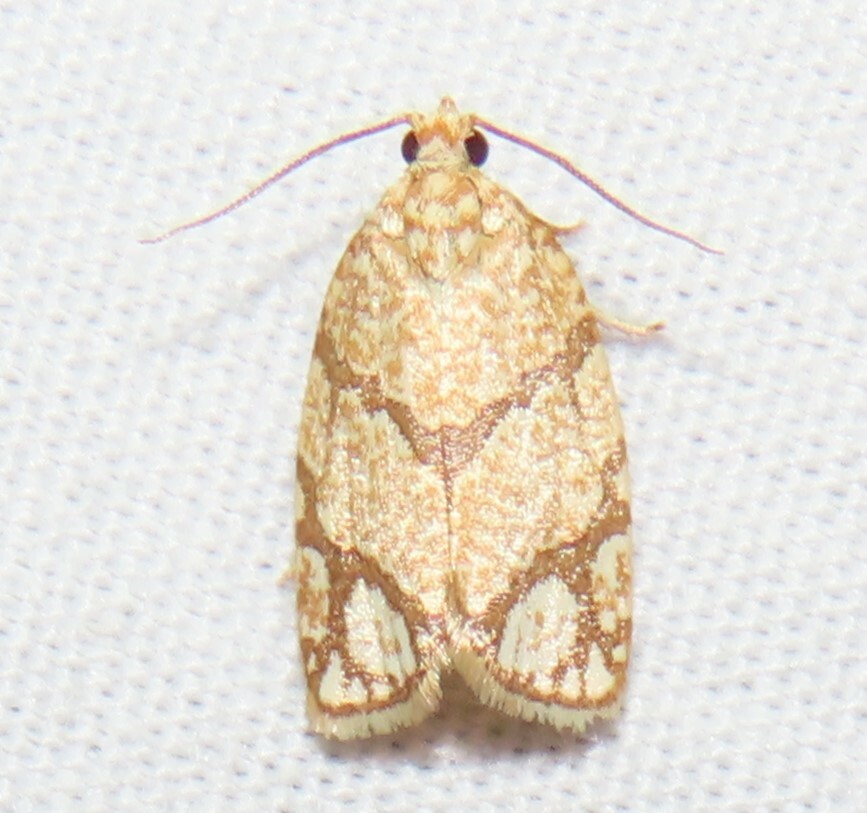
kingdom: Animalia
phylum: Arthropoda
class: Insecta
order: Lepidoptera
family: Tortricidae
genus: Argyrotaenia
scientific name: Argyrotaenia quercifoliana
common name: Yellow-winged oak leafroller moth
